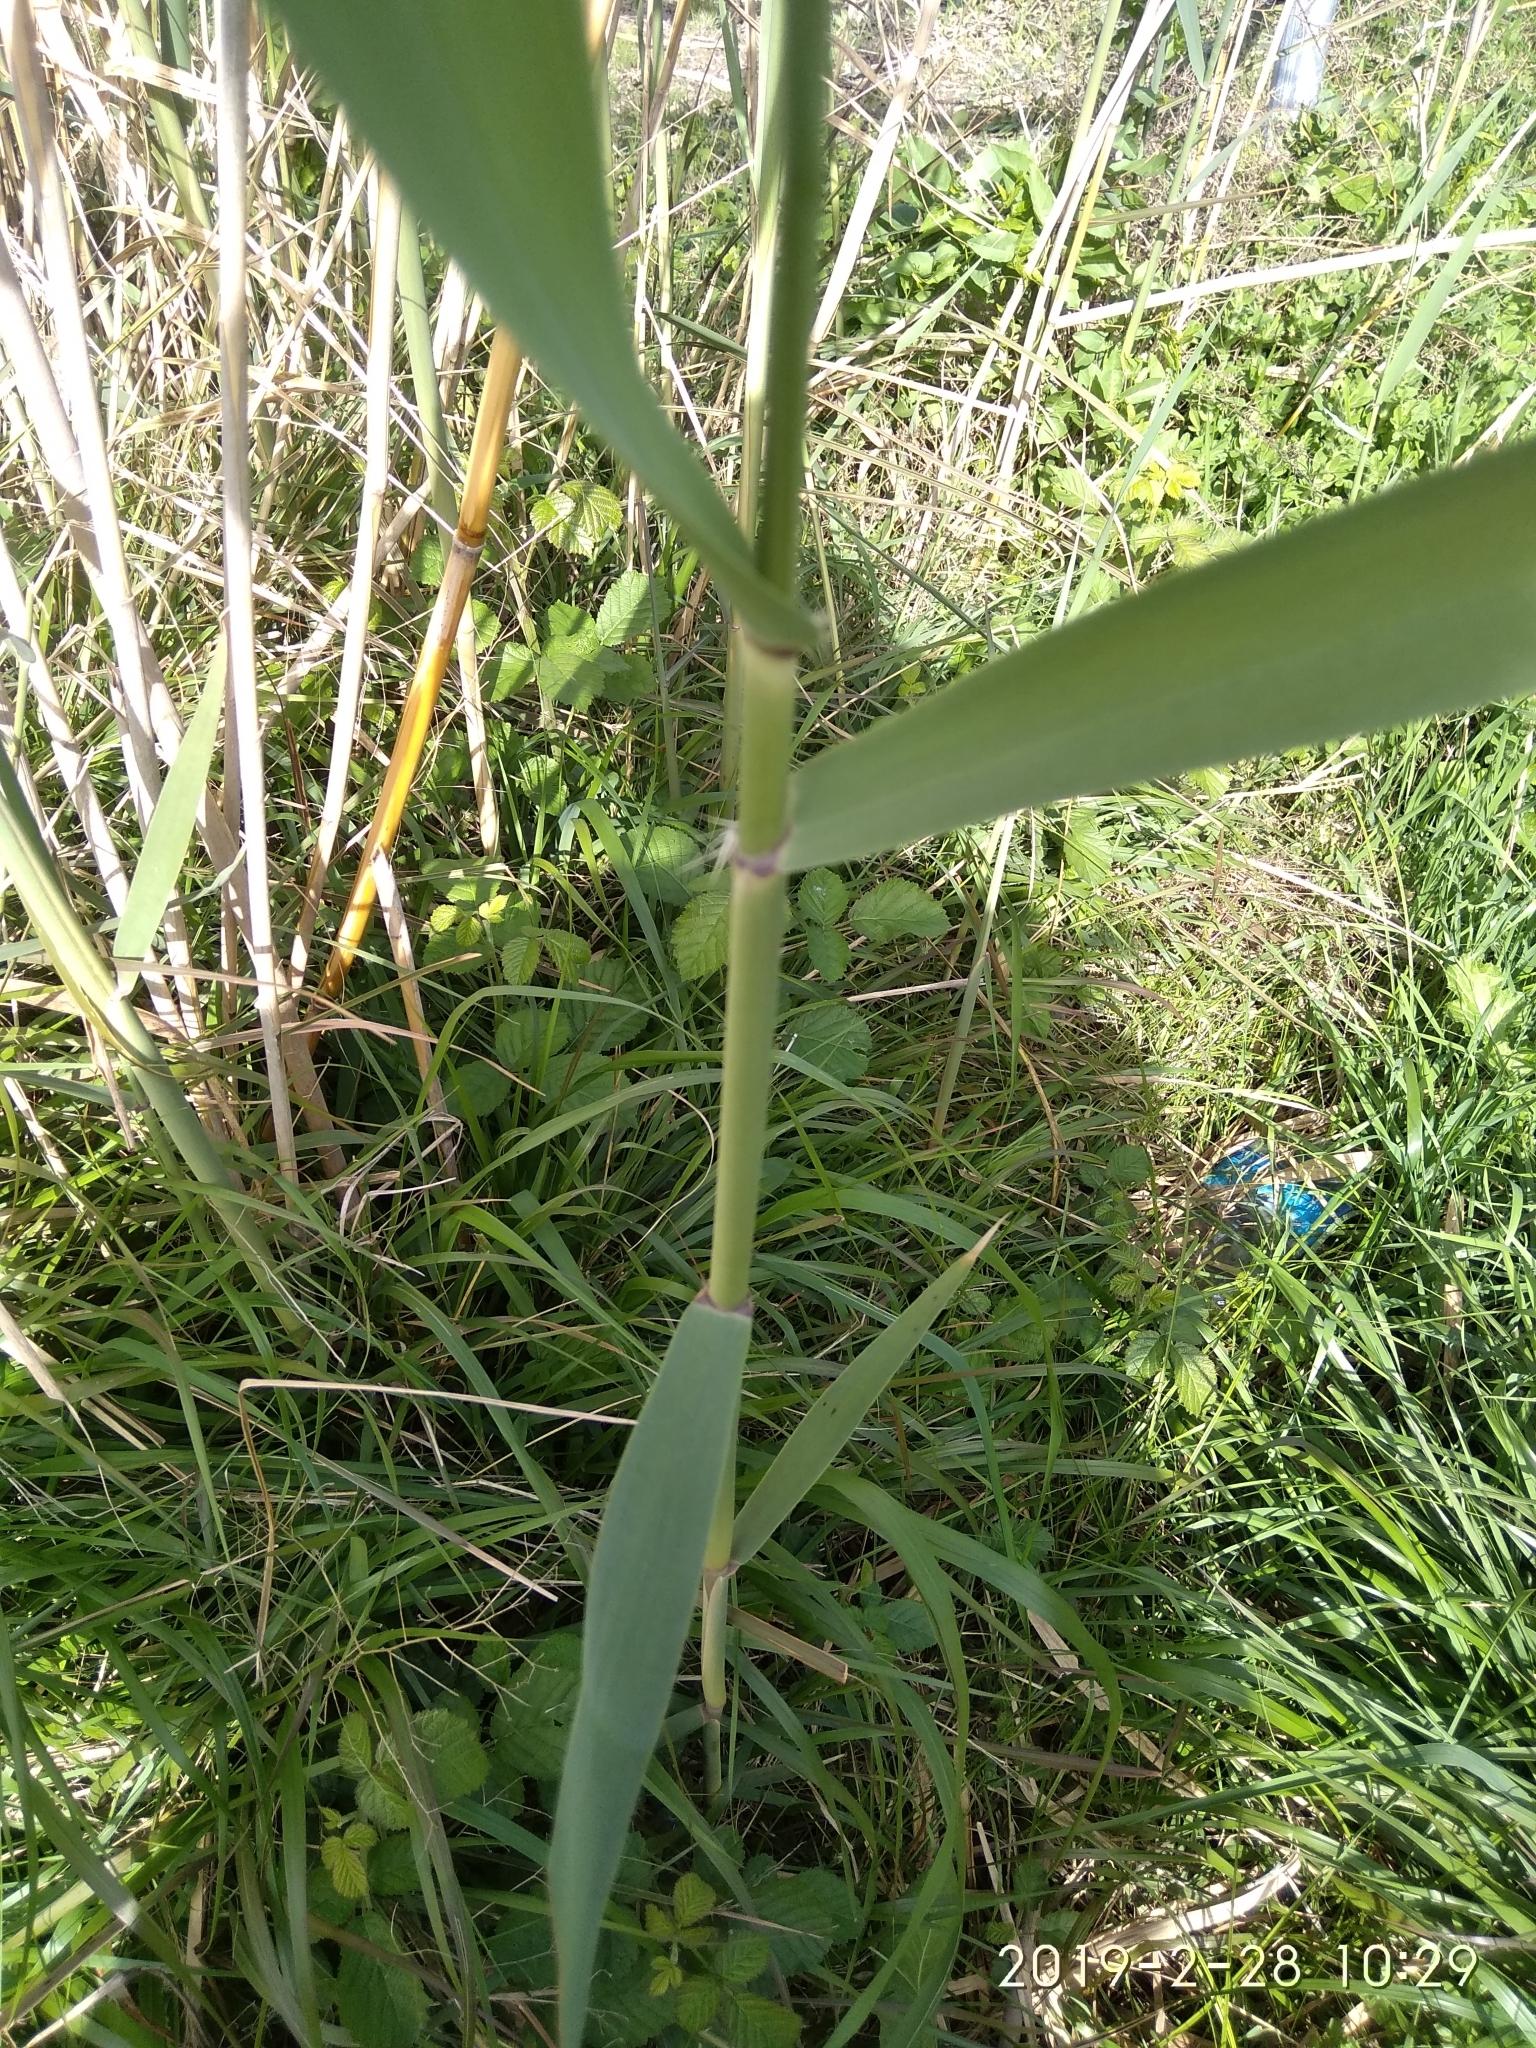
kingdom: Plantae
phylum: Tracheophyta
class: Liliopsida
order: Poales
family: Poaceae
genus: Phragmites
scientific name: Phragmites australis
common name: Common reed
